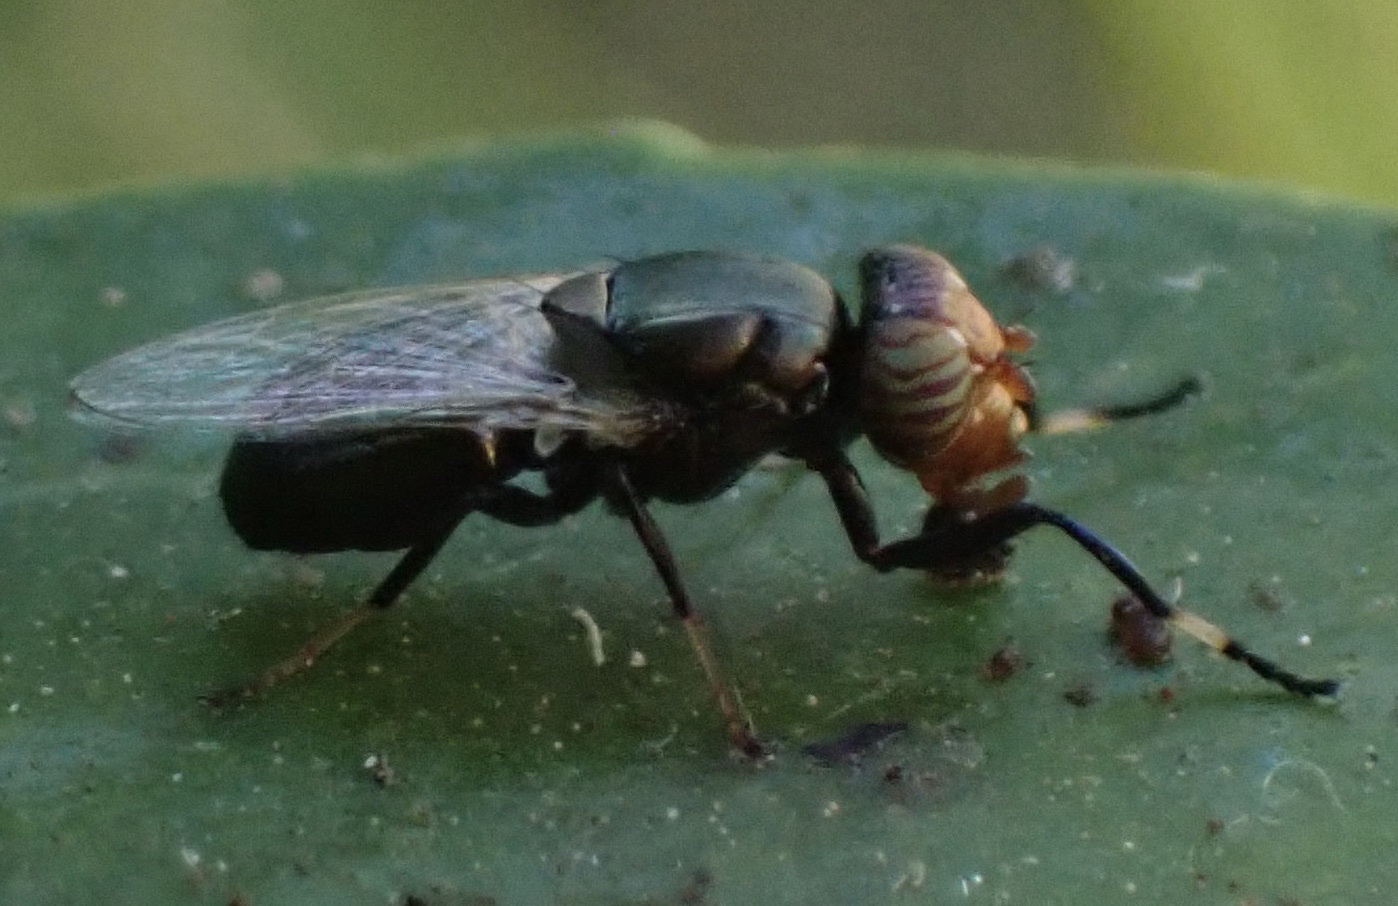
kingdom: Animalia
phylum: Arthropoda
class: Insecta
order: Diptera
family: Ulidiidae
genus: Physiphora
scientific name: Physiphora alceae
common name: Picture-winged fly
